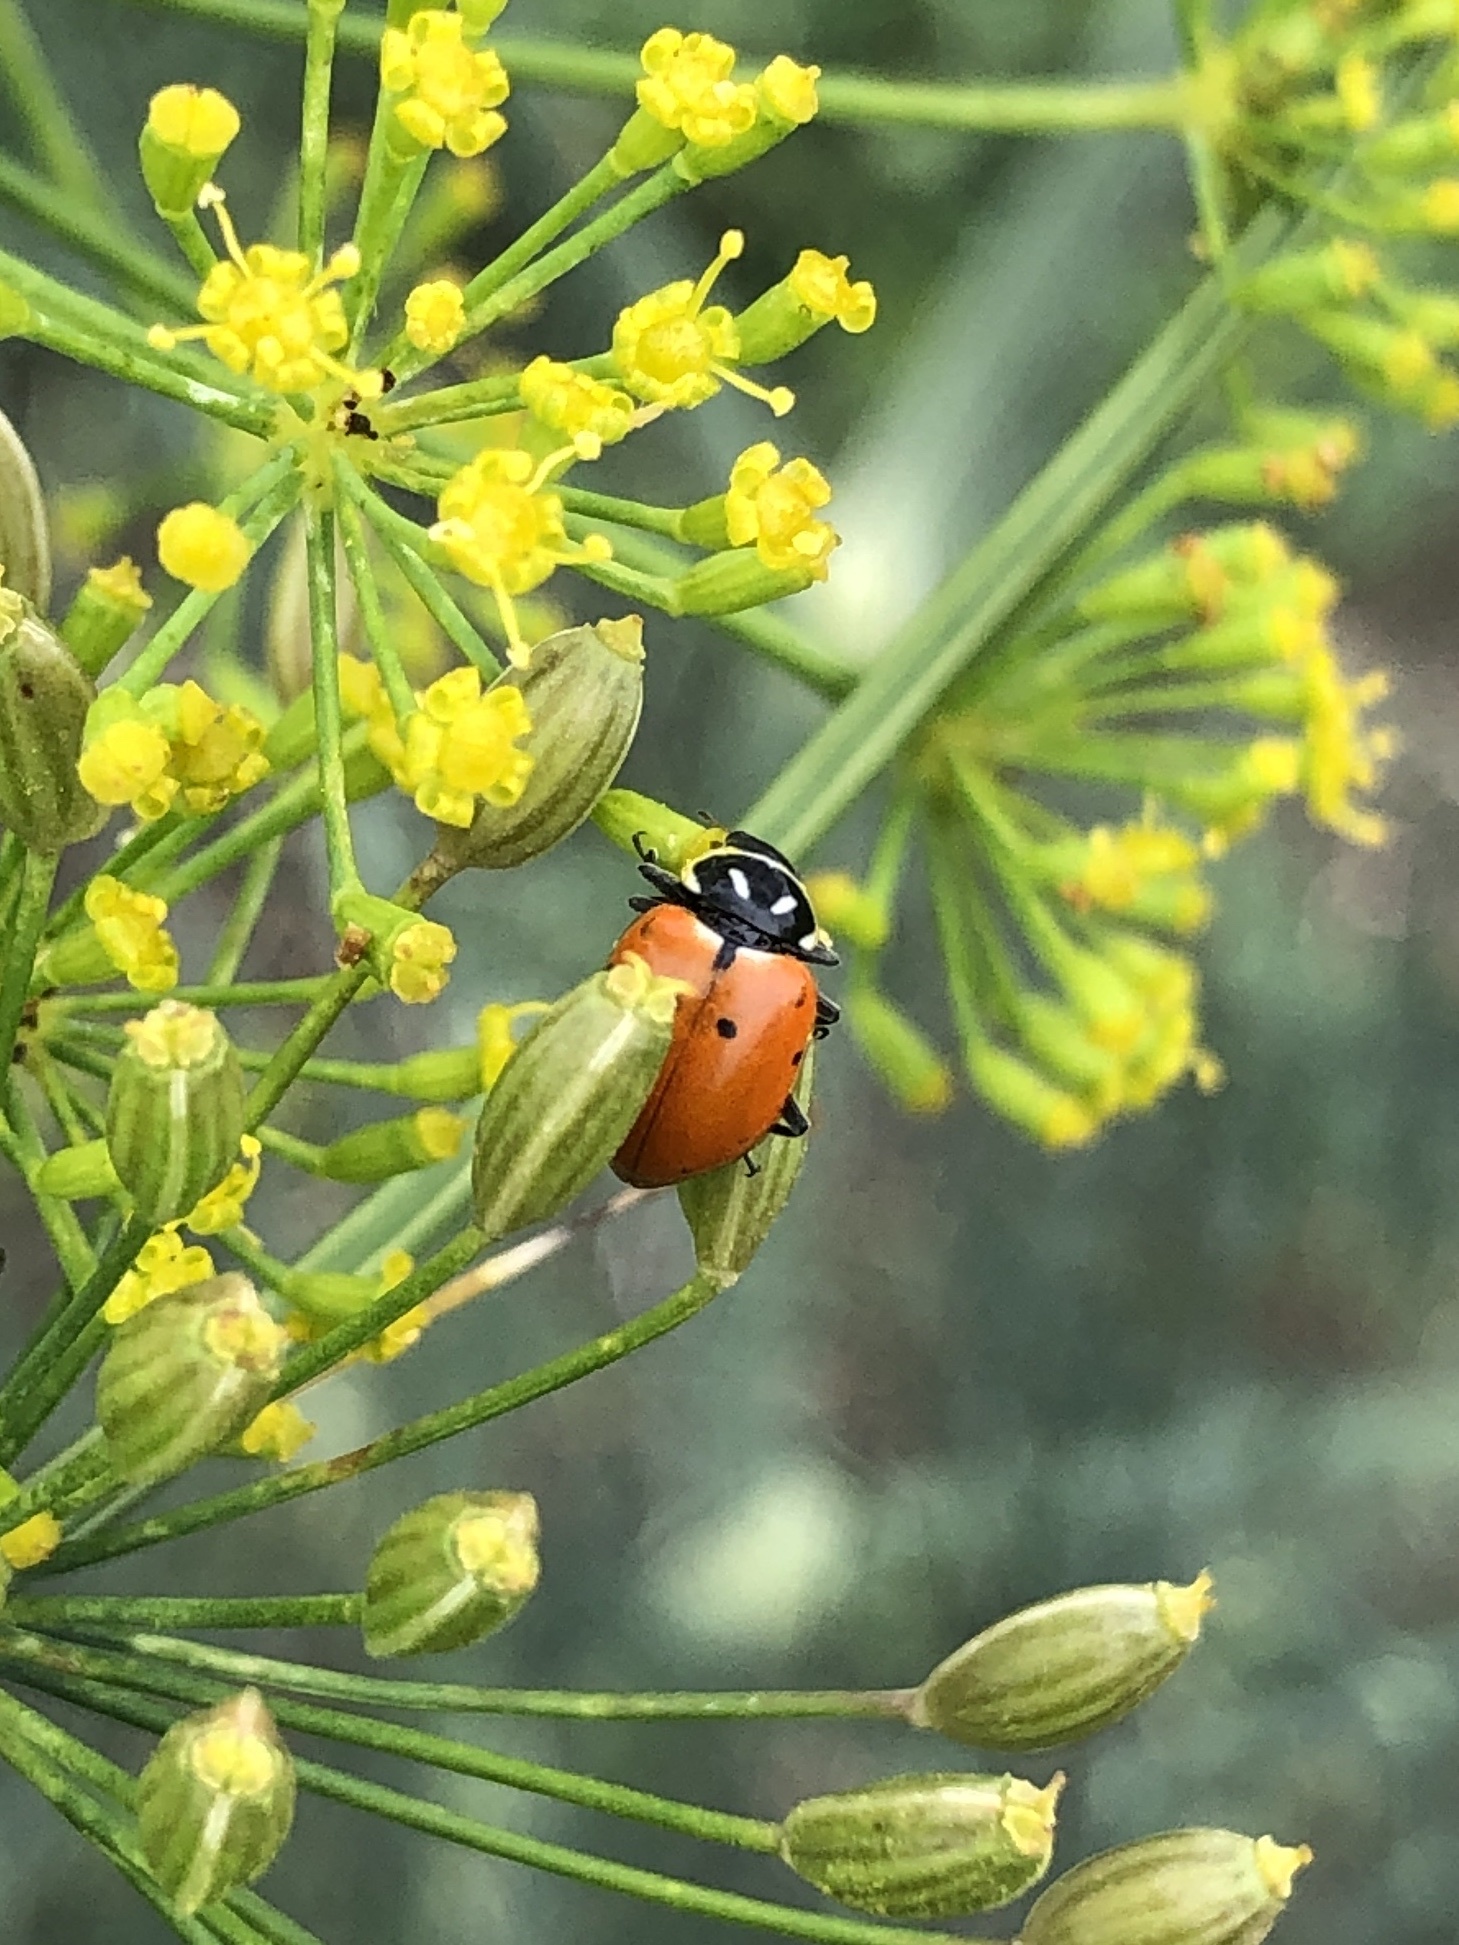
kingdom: Animalia
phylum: Arthropoda
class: Insecta
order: Coleoptera
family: Coccinellidae
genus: Hippodamia
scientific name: Hippodamia convergens
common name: Convergent lady beetle
